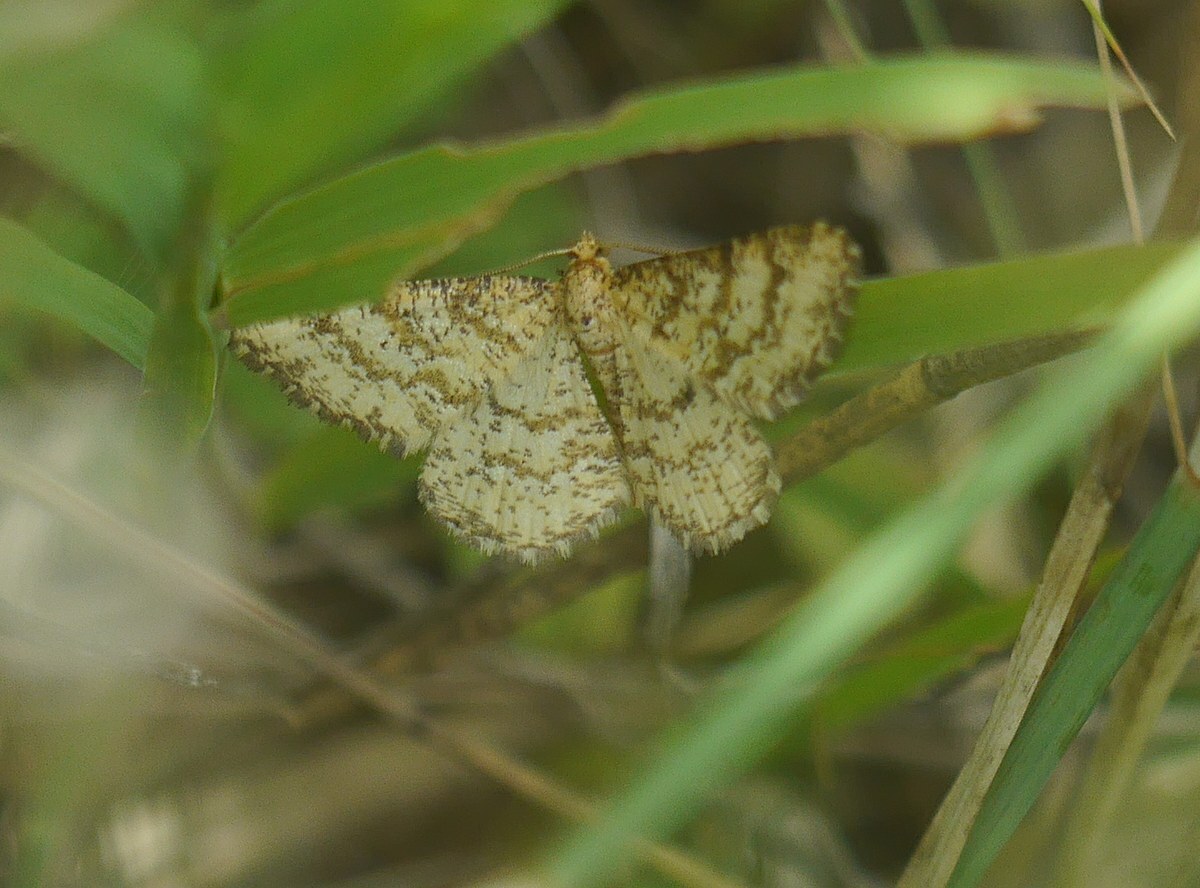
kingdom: Animalia
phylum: Arthropoda
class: Insecta
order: Lepidoptera
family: Geometridae
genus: Heliomata
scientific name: Heliomata glarearia
